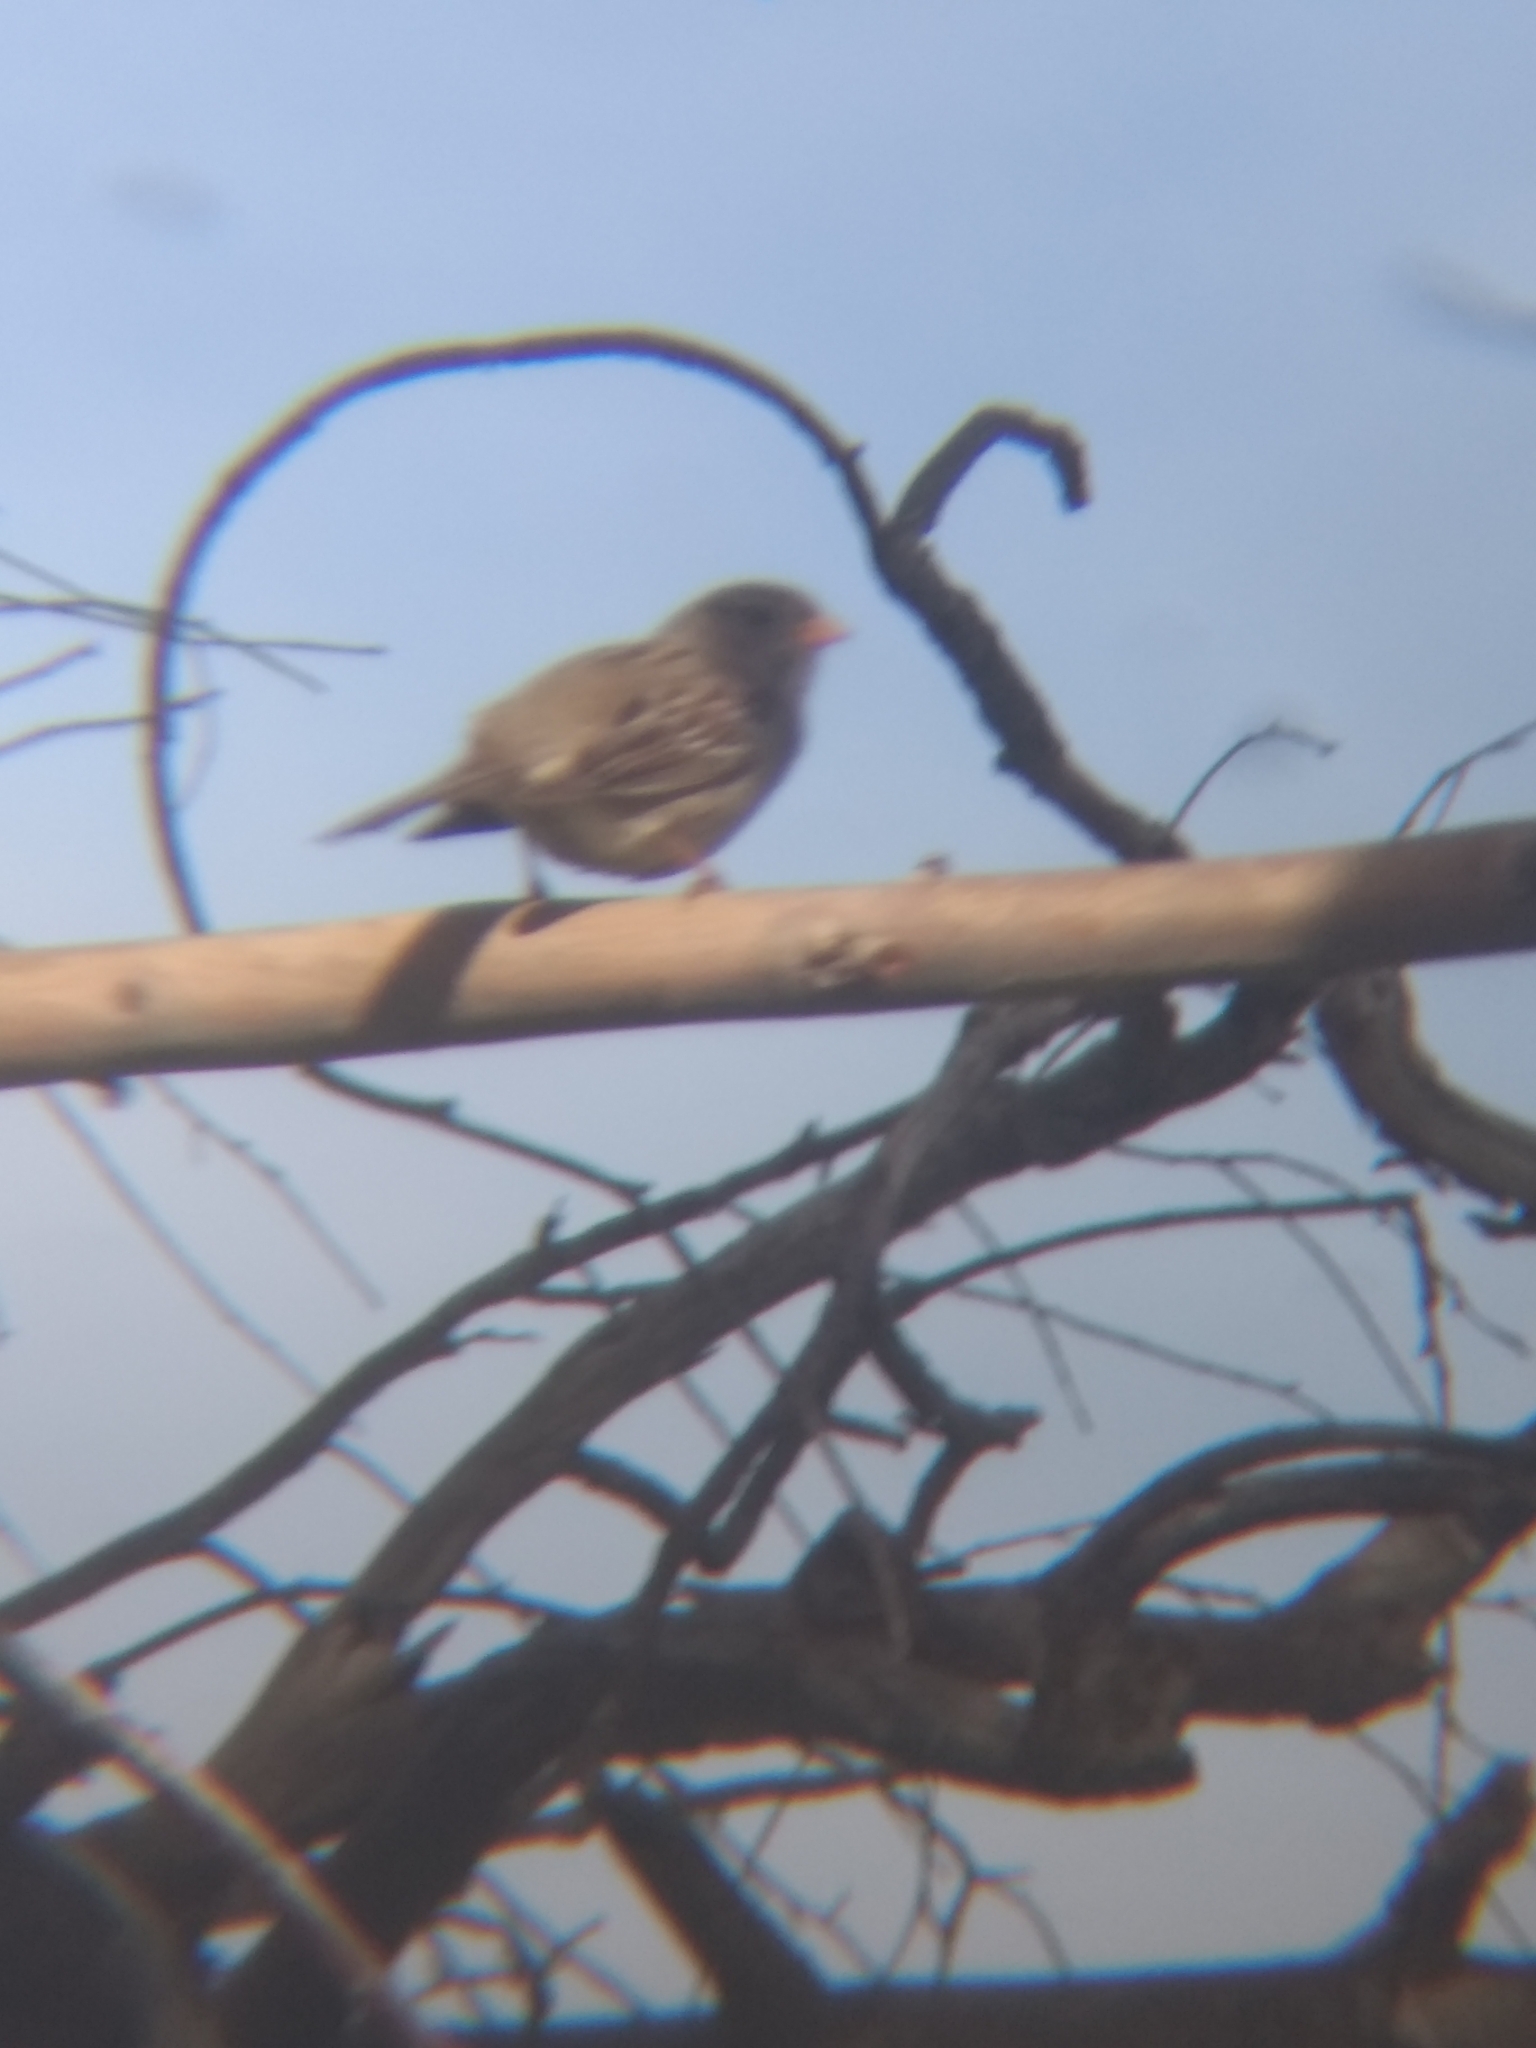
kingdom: Animalia
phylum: Chordata
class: Aves
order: Passeriformes
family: Passerellidae
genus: Zonotrichia
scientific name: Zonotrichia leucophrys
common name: White-crowned sparrow
